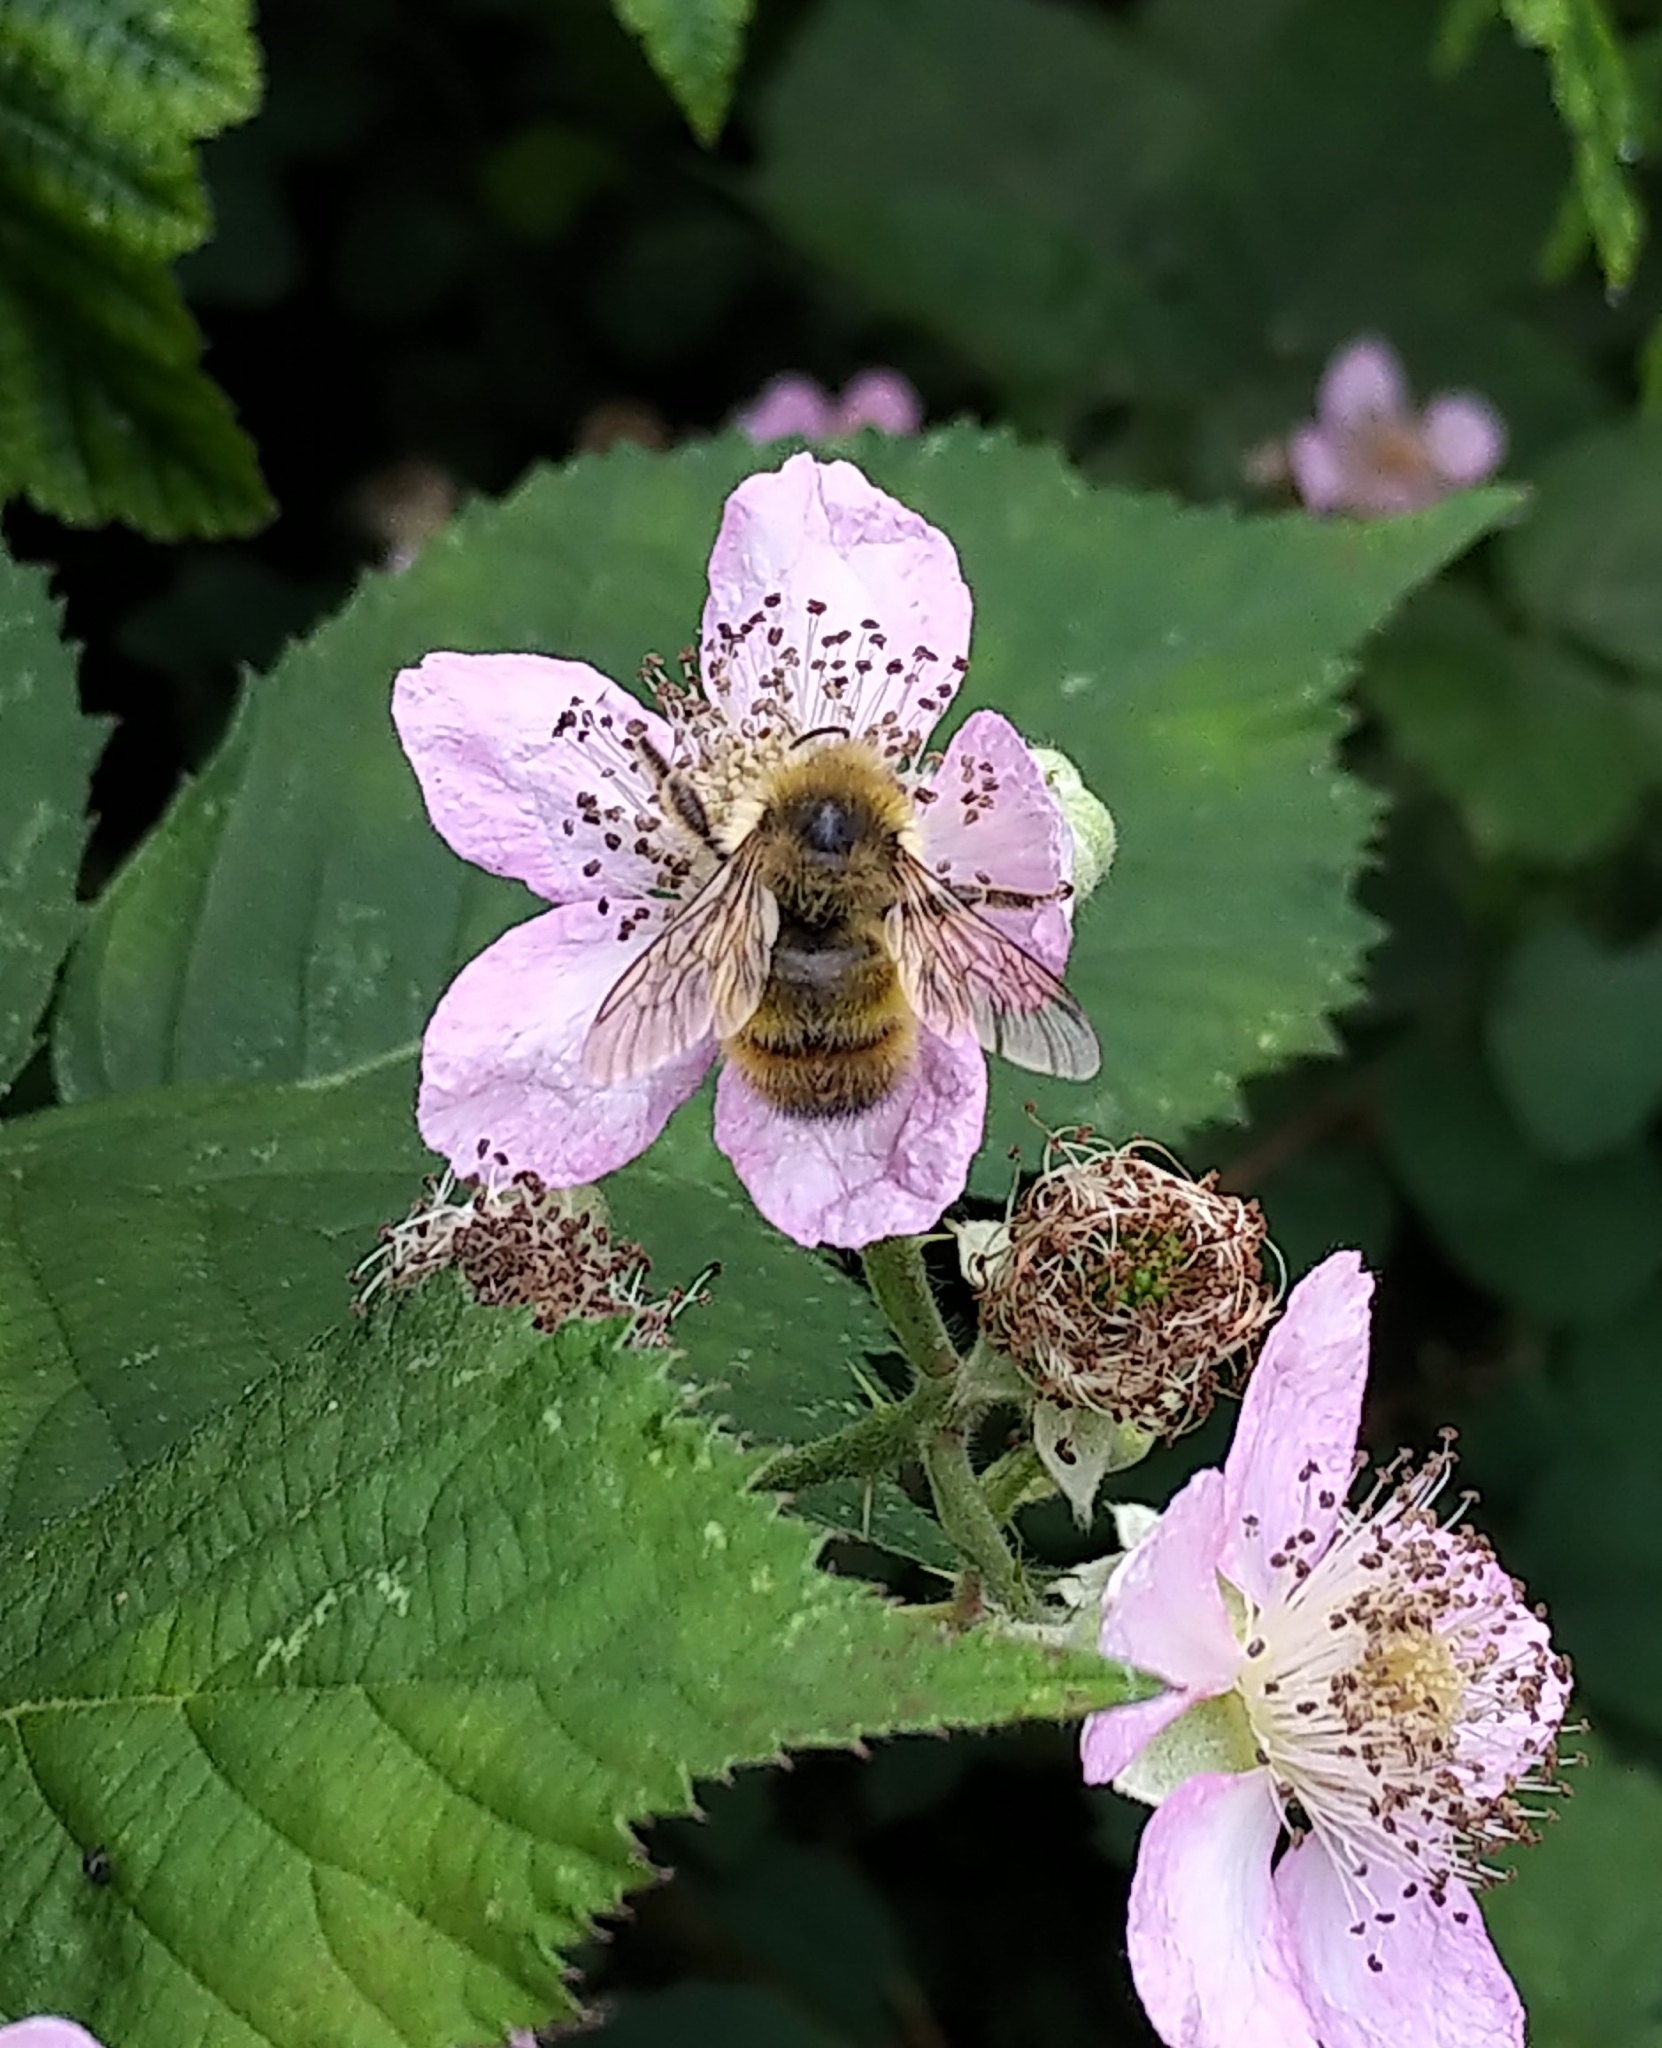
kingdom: Animalia
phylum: Arthropoda
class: Insecta
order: Hymenoptera
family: Apidae
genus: Bombus
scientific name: Bombus flavifrons
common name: Yellow head bumble bee
